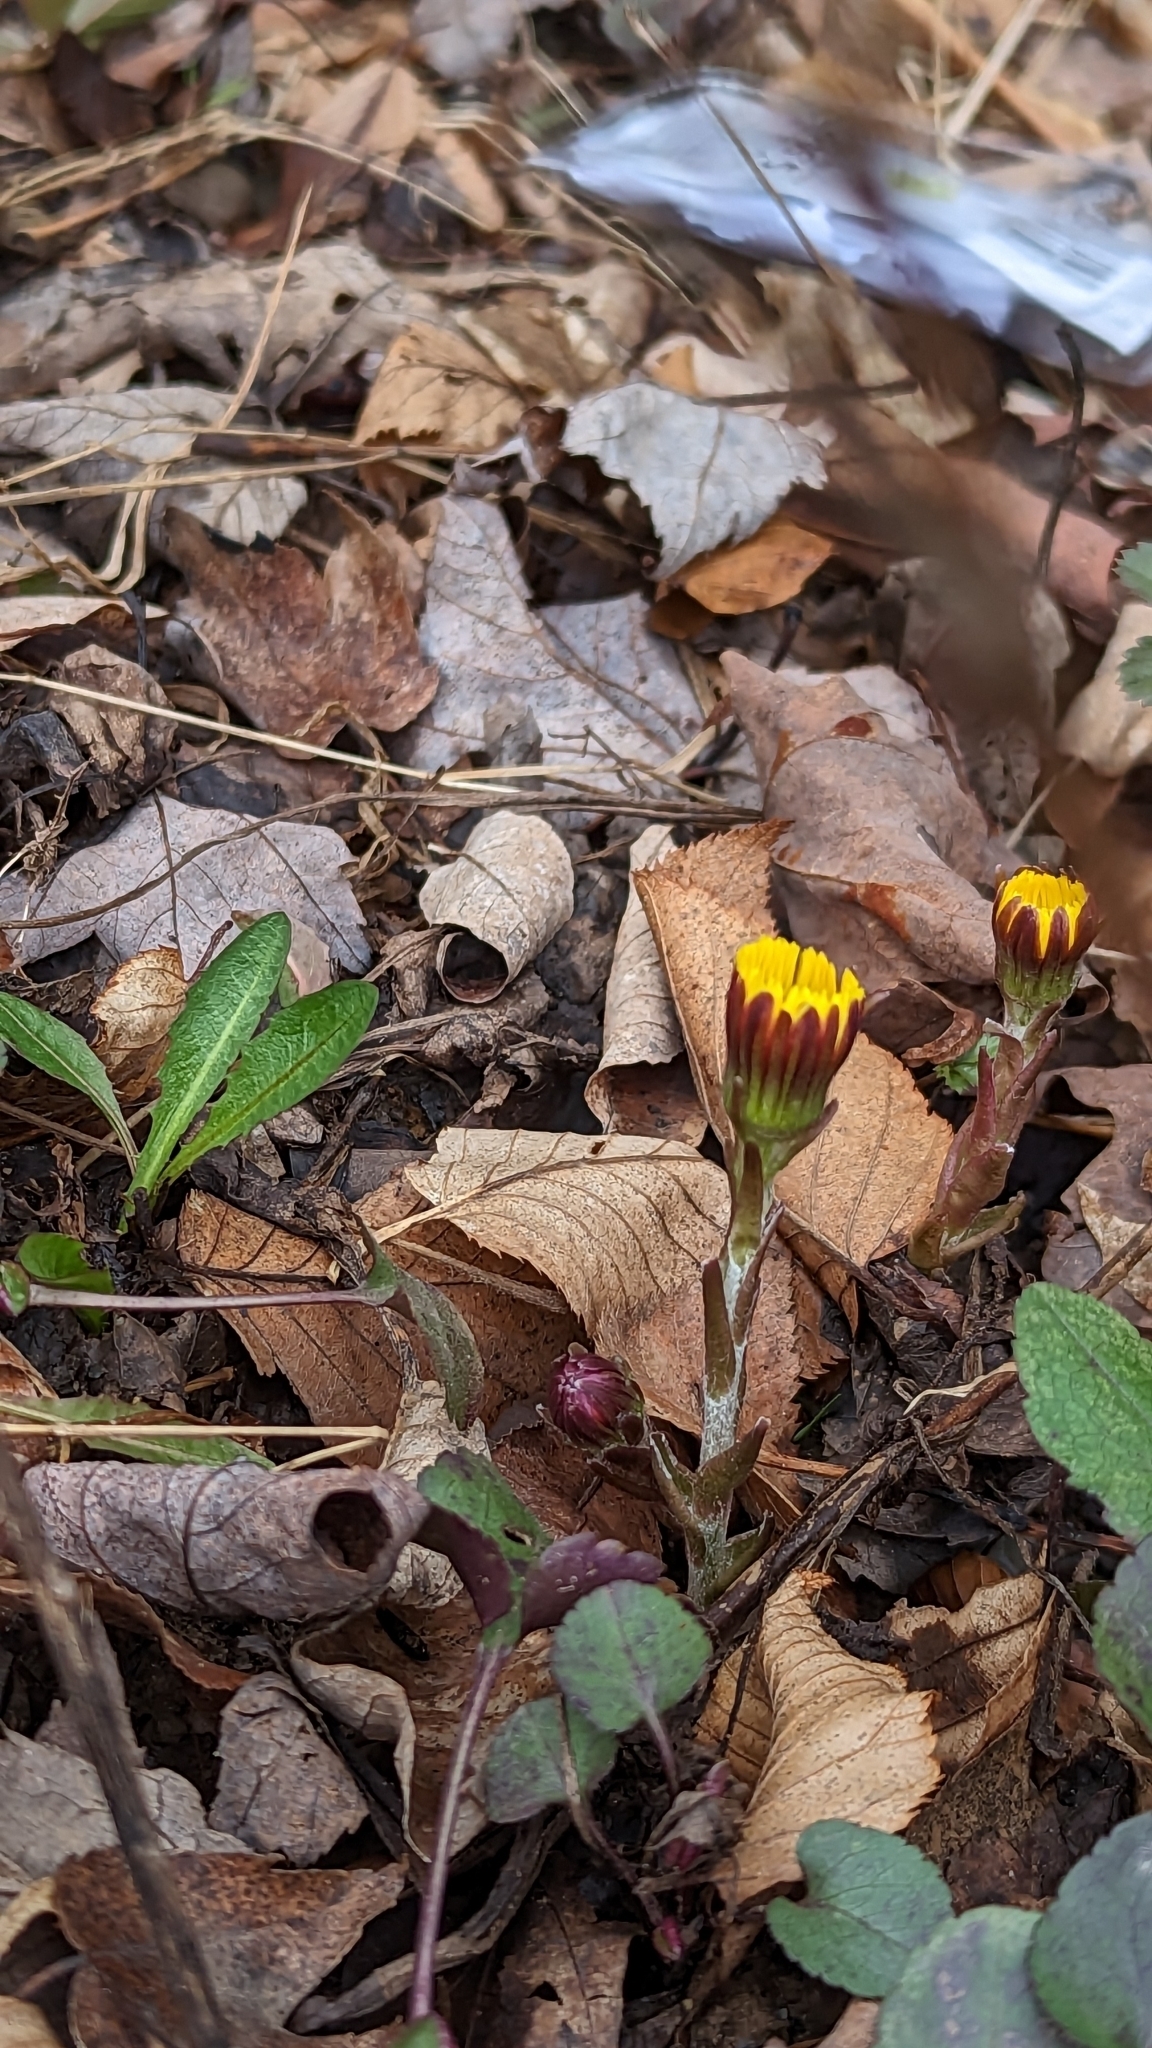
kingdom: Plantae
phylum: Tracheophyta
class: Magnoliopsida
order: Asterales
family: Asteraceae
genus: Tussilago
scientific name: Tussilago farfara
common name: Coltsfoot
